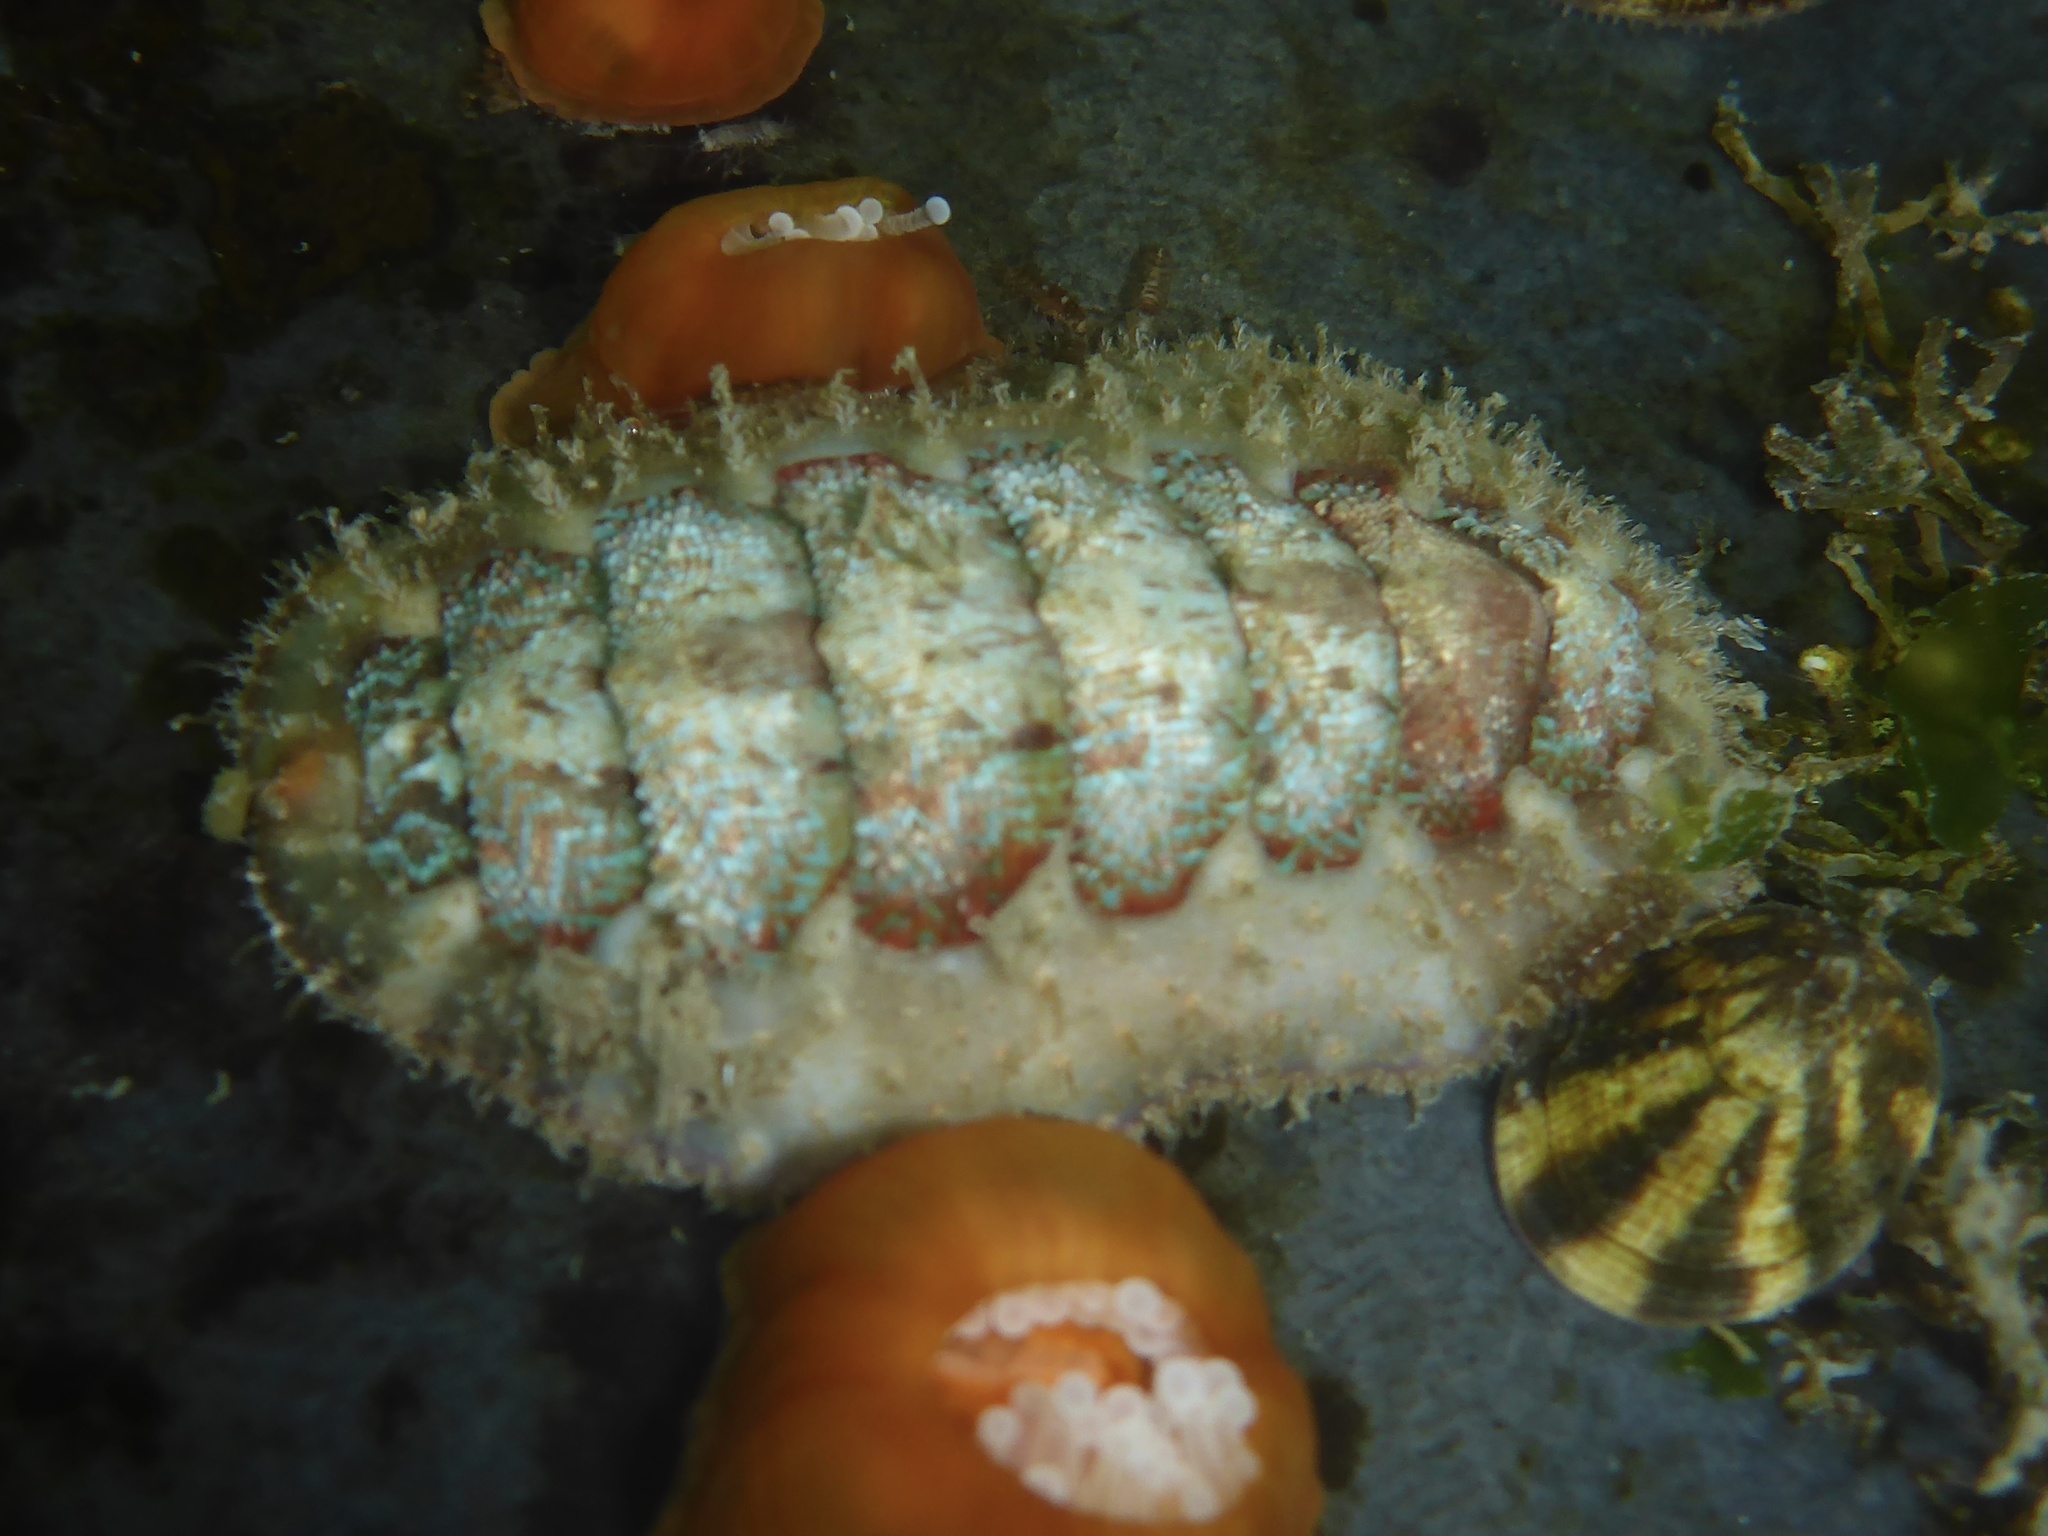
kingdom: Animalia
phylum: Mollusca
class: Polyplacophora
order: Chitonida
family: Mopaliidae
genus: Mopalia
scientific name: Mopalia spectabilis
